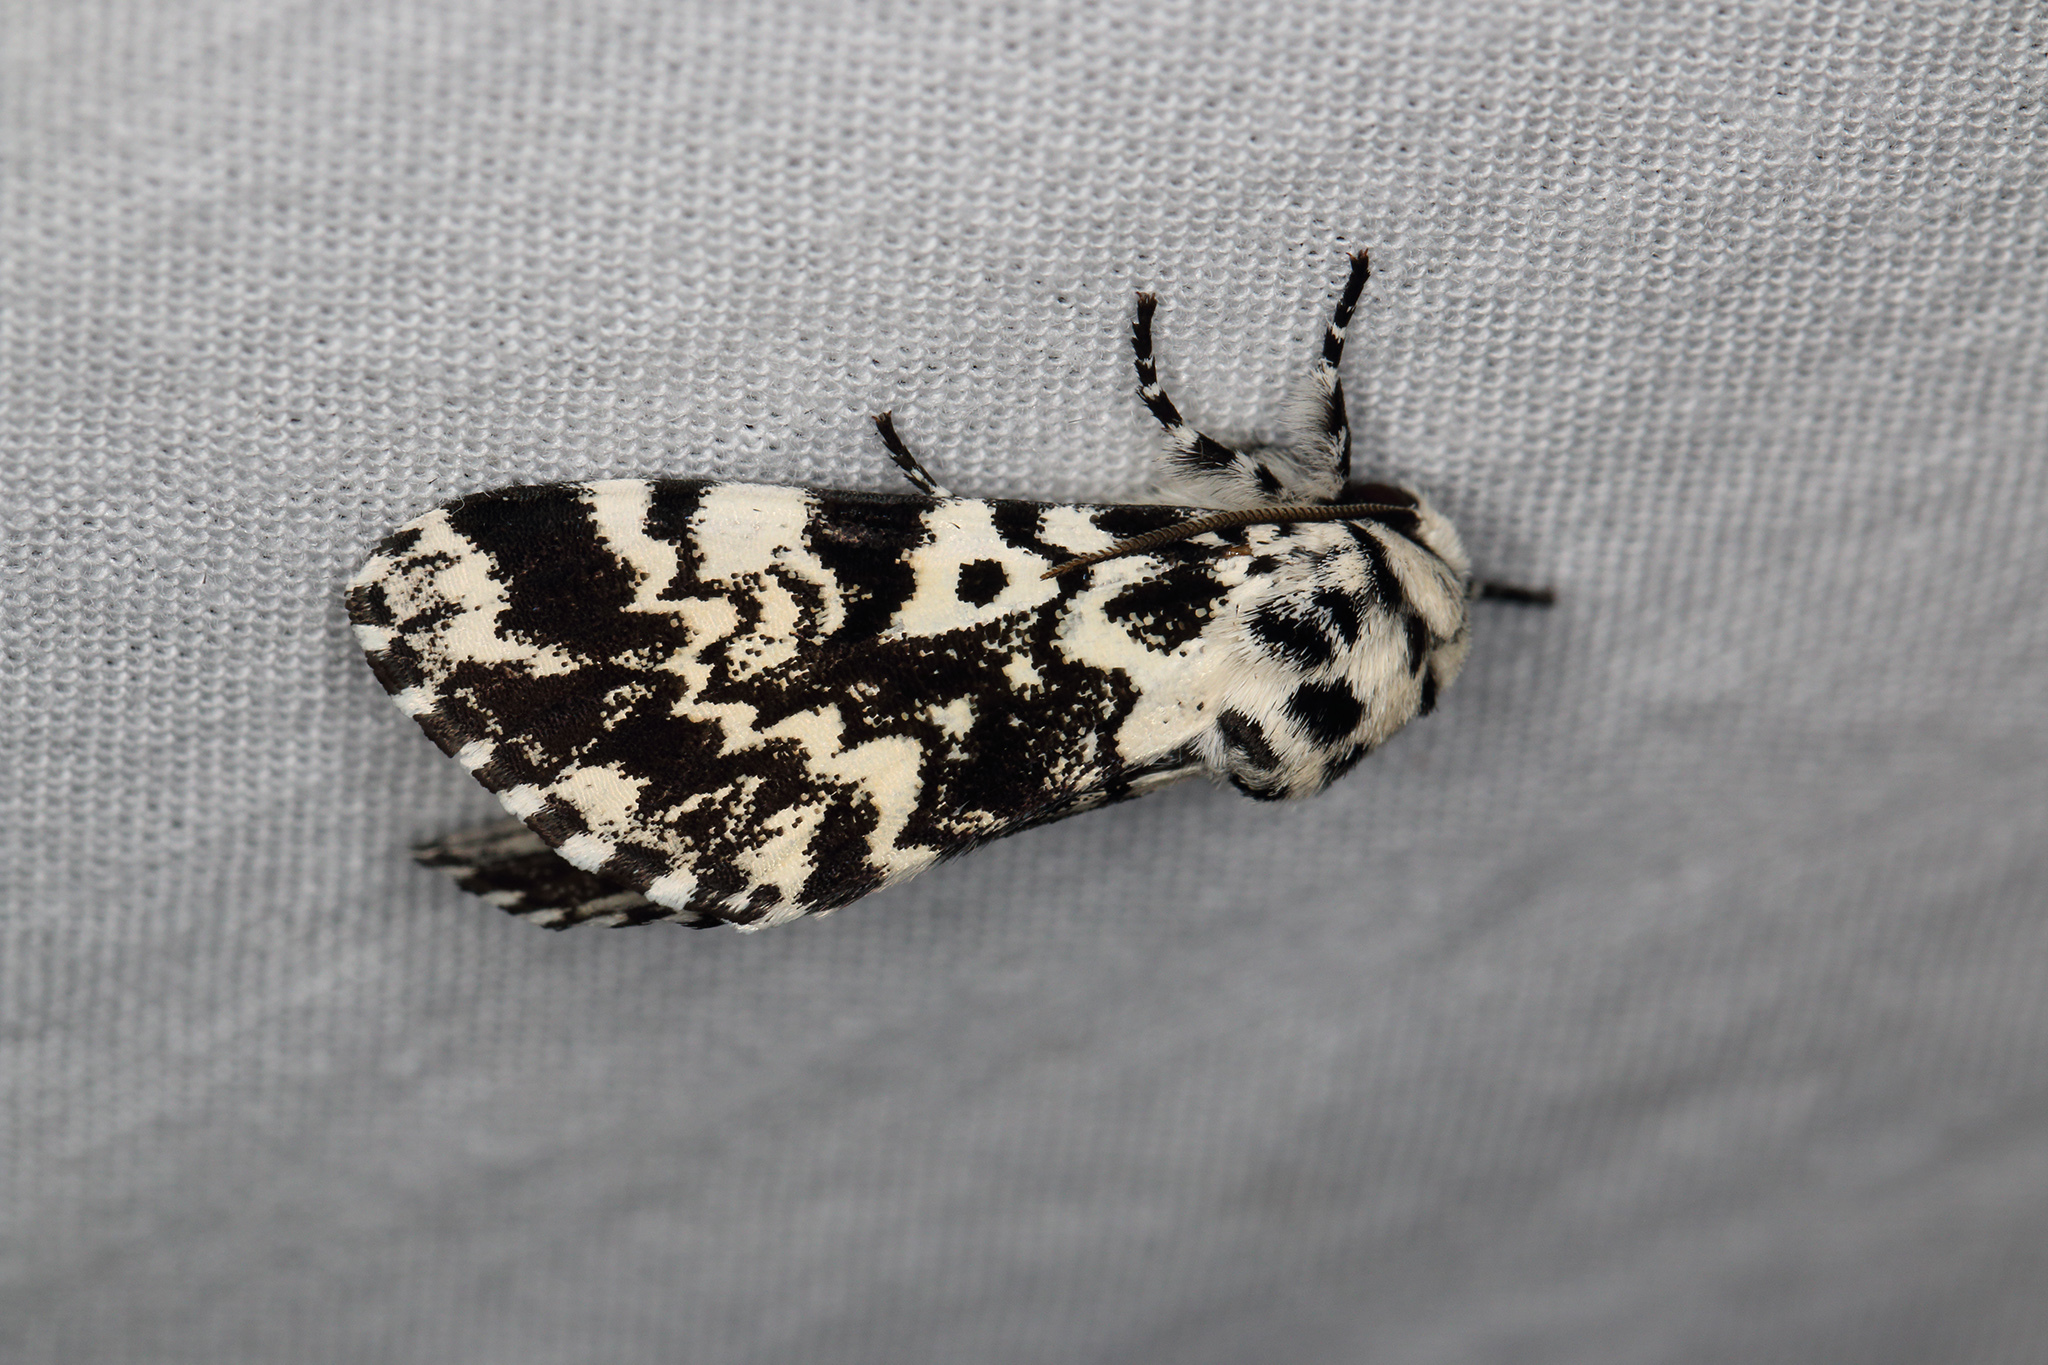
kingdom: Animalia
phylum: Arthropoda
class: Insecta
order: Lepidoptera
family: Noctuidae
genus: Panthea
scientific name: Panthea coenobita
